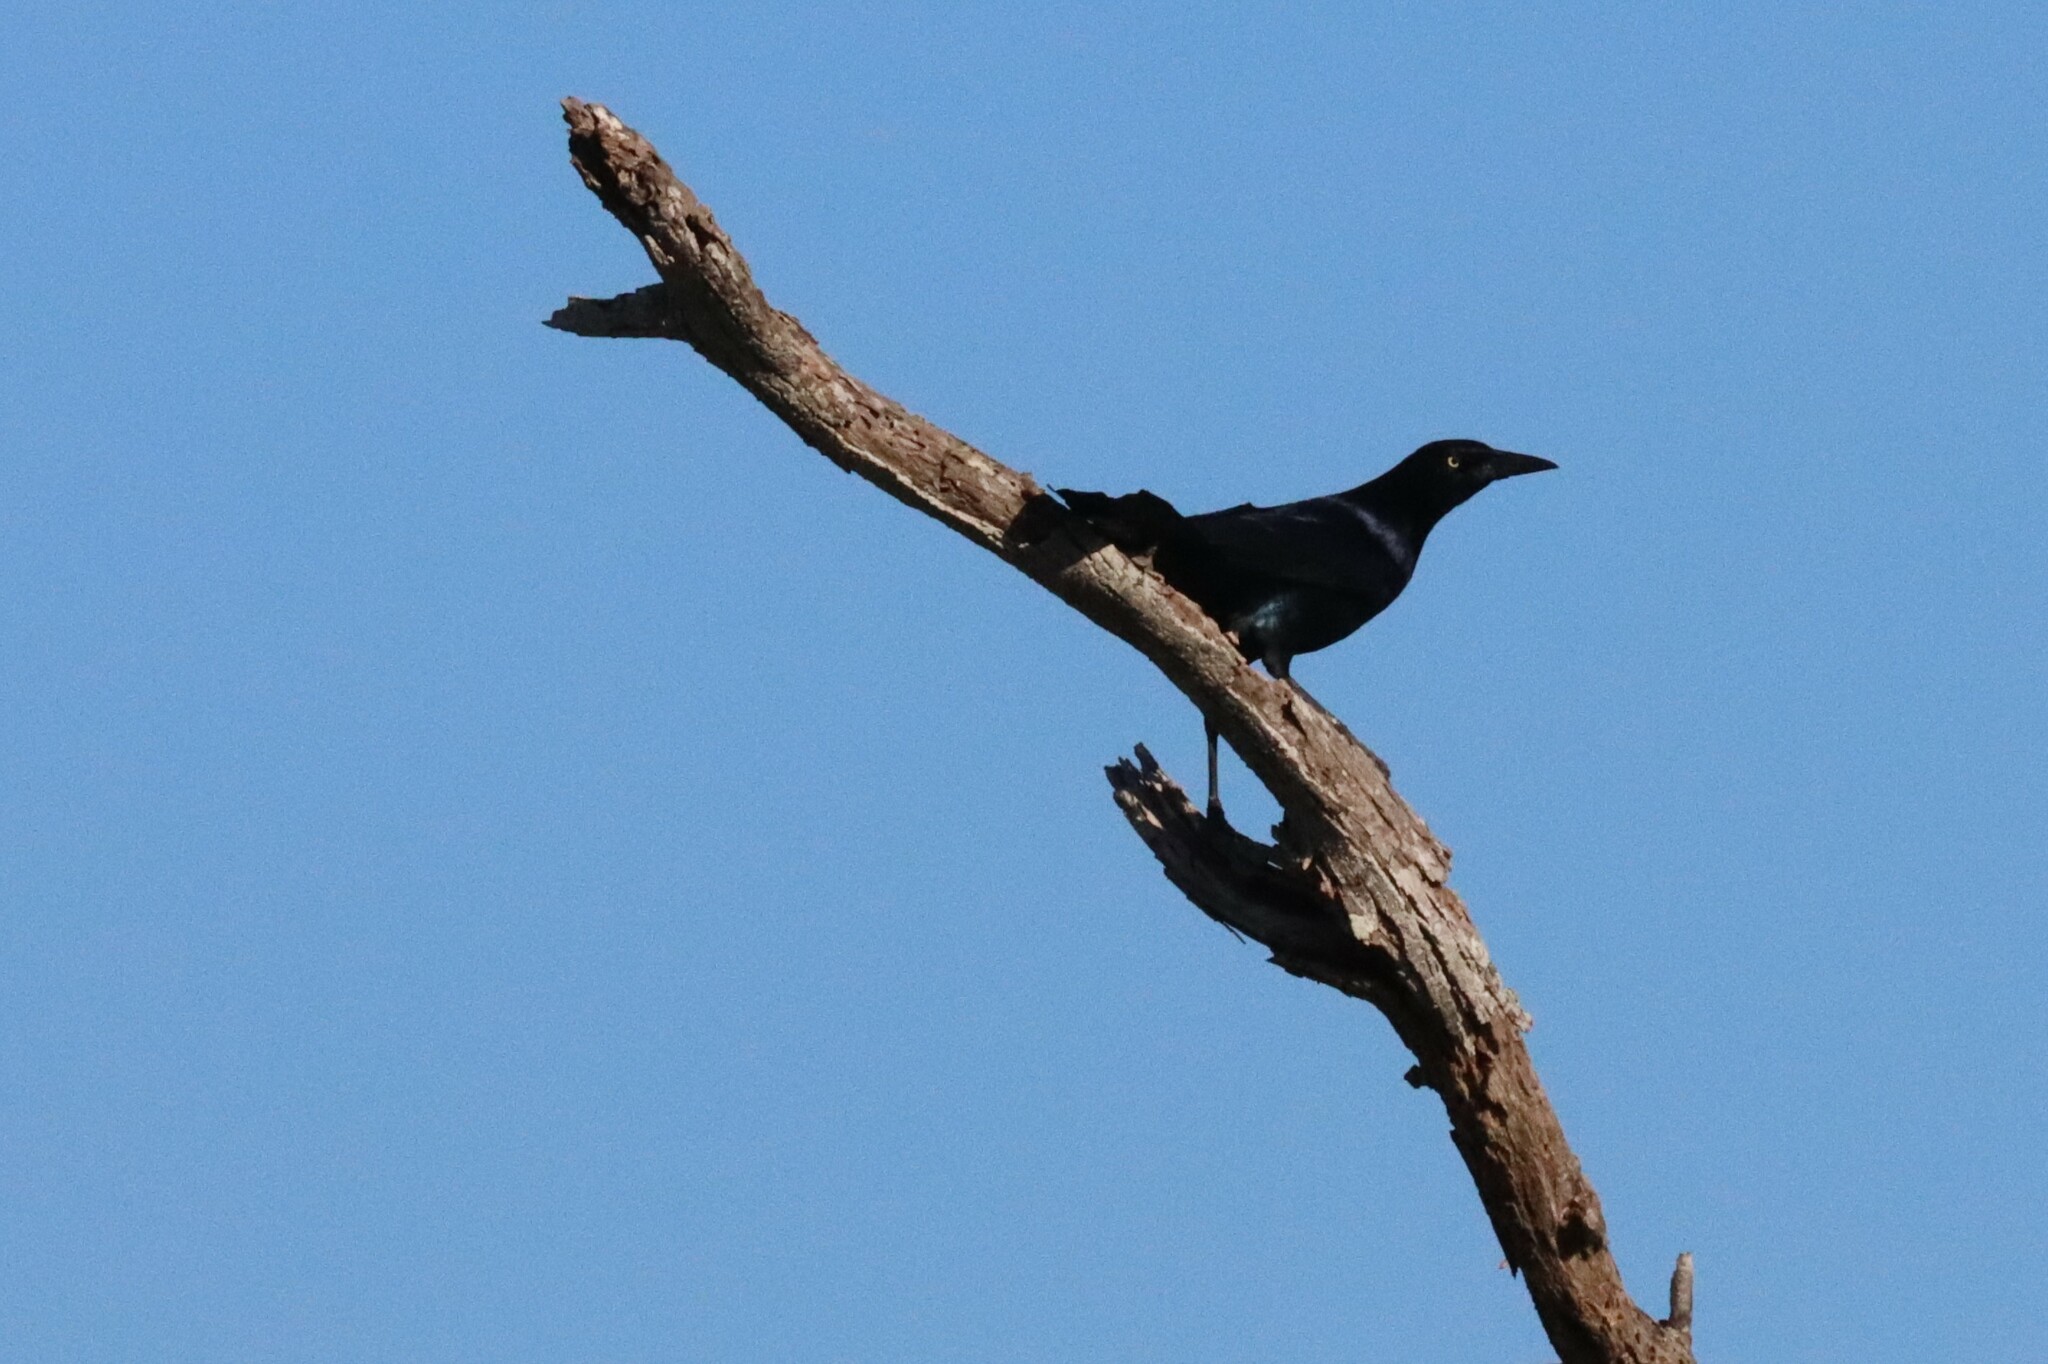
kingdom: Animalia
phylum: Chordata
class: Aves
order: Passeriformes
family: Icteridae
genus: Quiscalus
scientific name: Quiscalus mexicanus
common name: Great-tailed grackle
